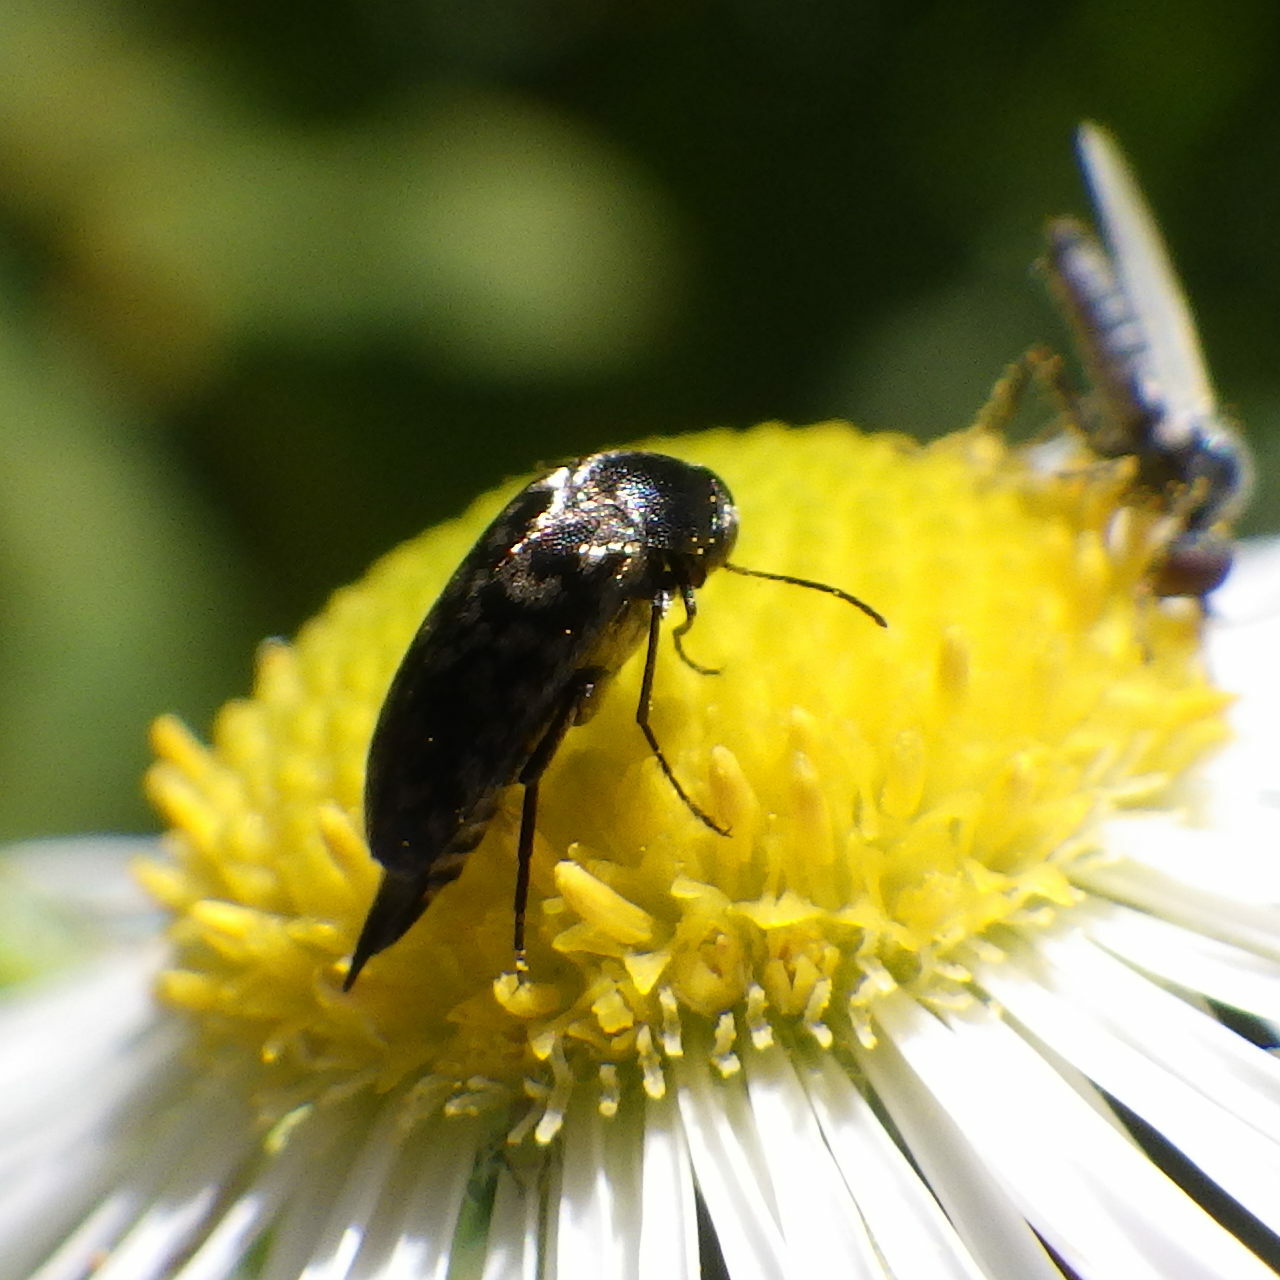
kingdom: Animalia
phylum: Arthropoda
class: Insecta
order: Coleoptera
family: Mordellidae
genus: Mordella
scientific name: Mordella marginata
